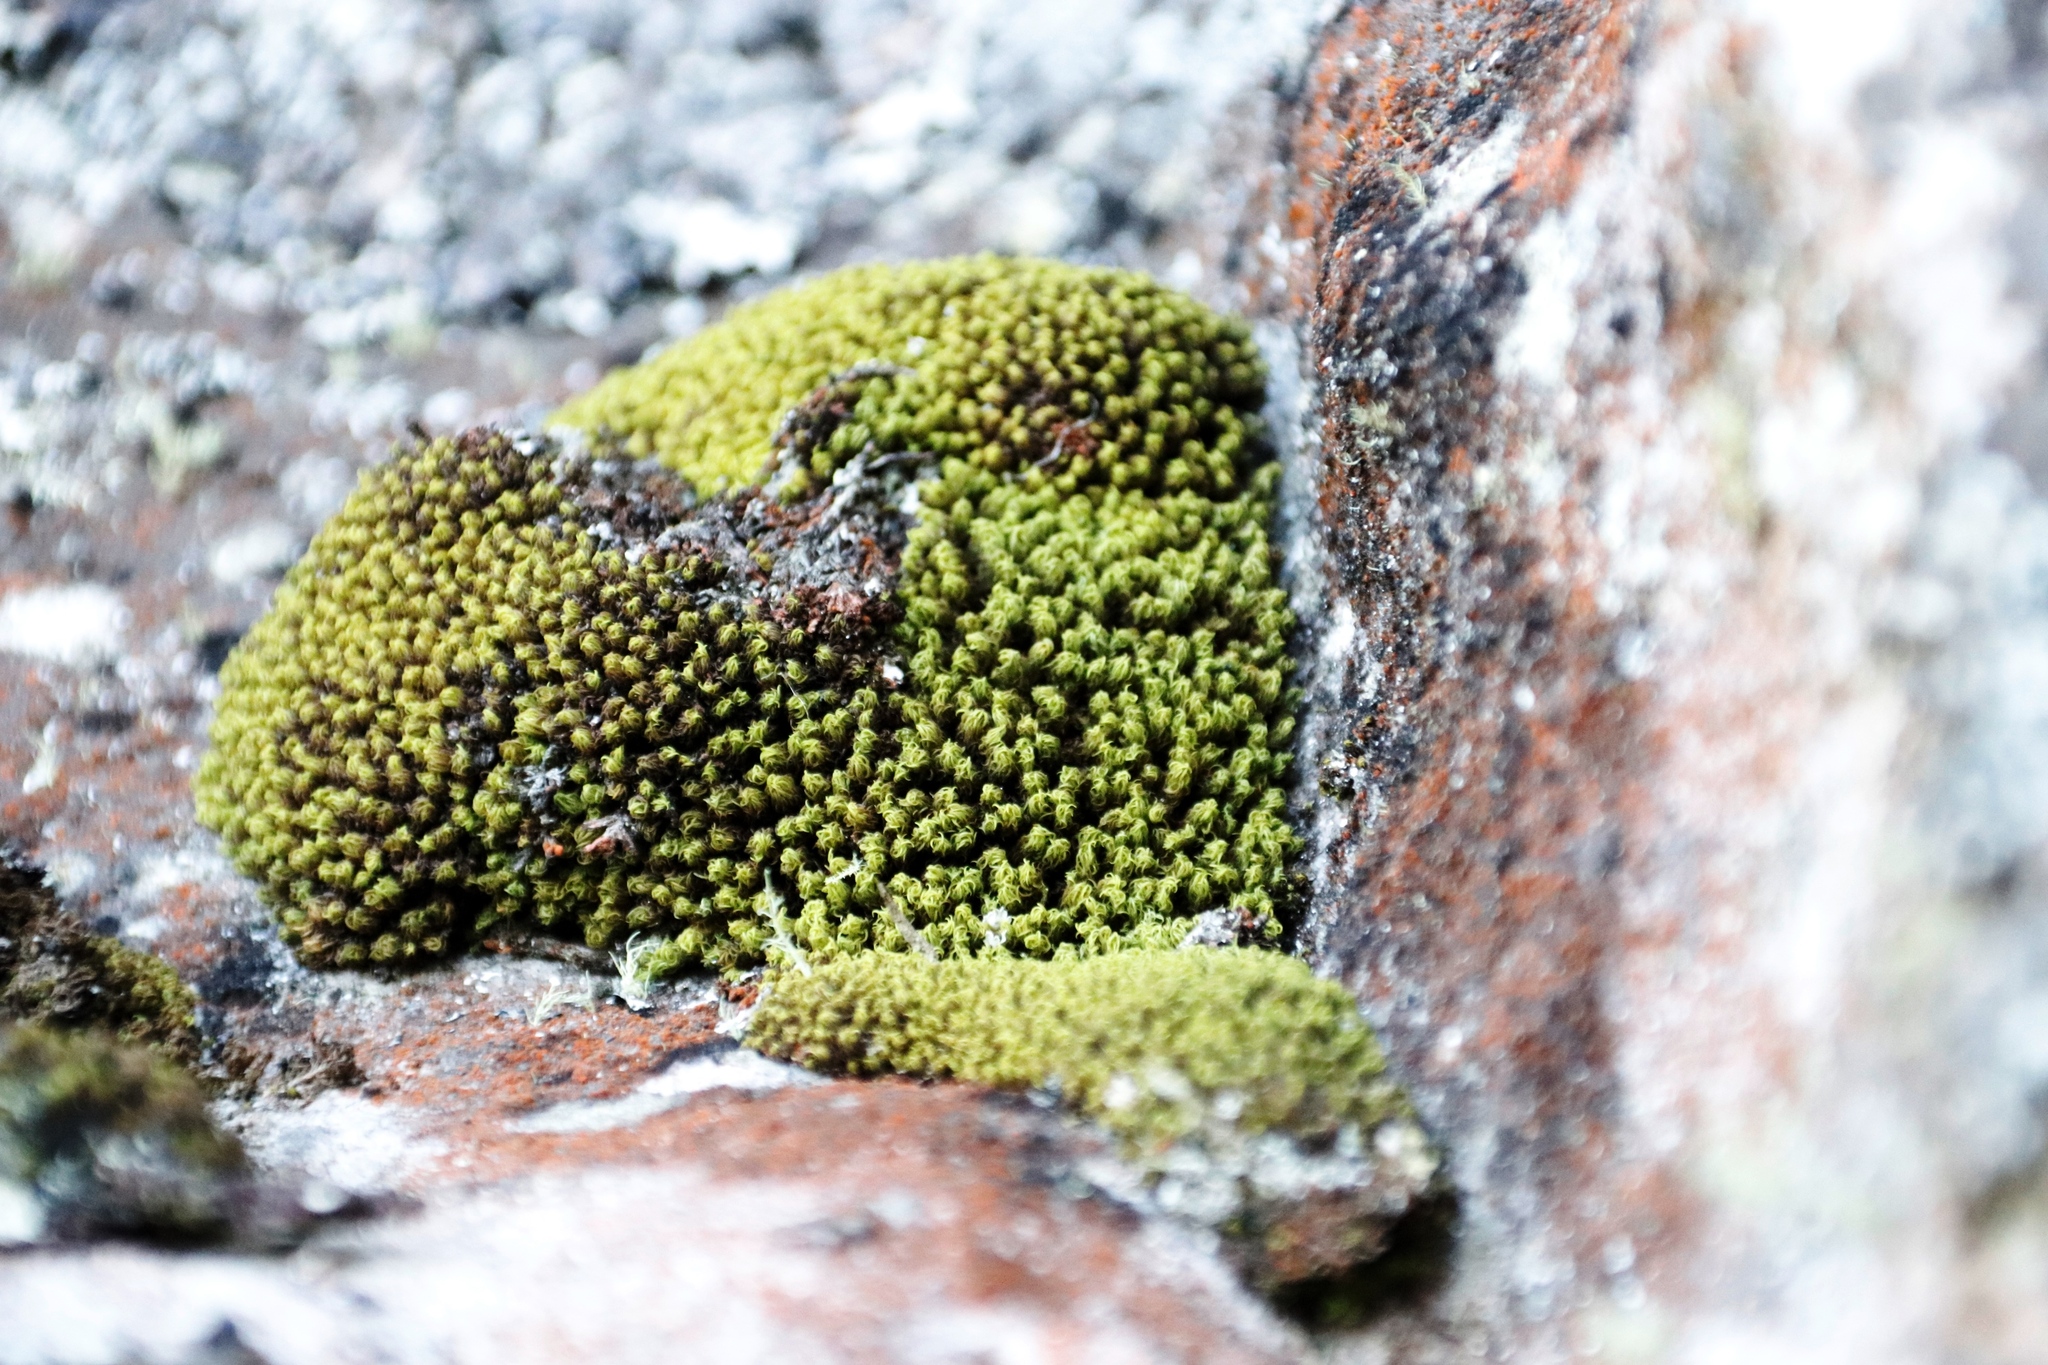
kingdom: Plantae
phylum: Bryophyta
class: Bryopsida
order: Dicranales
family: Hypodontiaceae
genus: Hypodontium
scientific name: Hypodontium pomiforme
